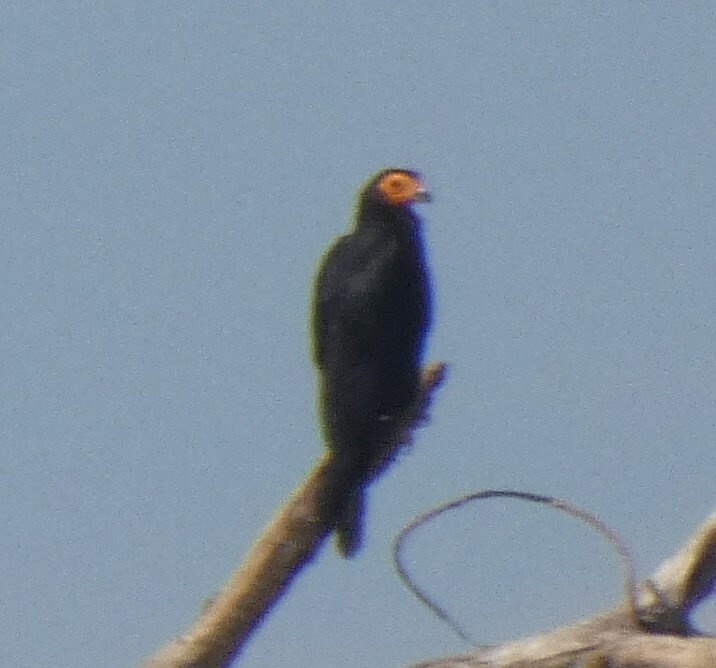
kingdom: Animalia
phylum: Chordata
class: Aves
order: Falconiformes
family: Falconidae
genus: Daptrius
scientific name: Daptrius ater
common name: Black caracara
